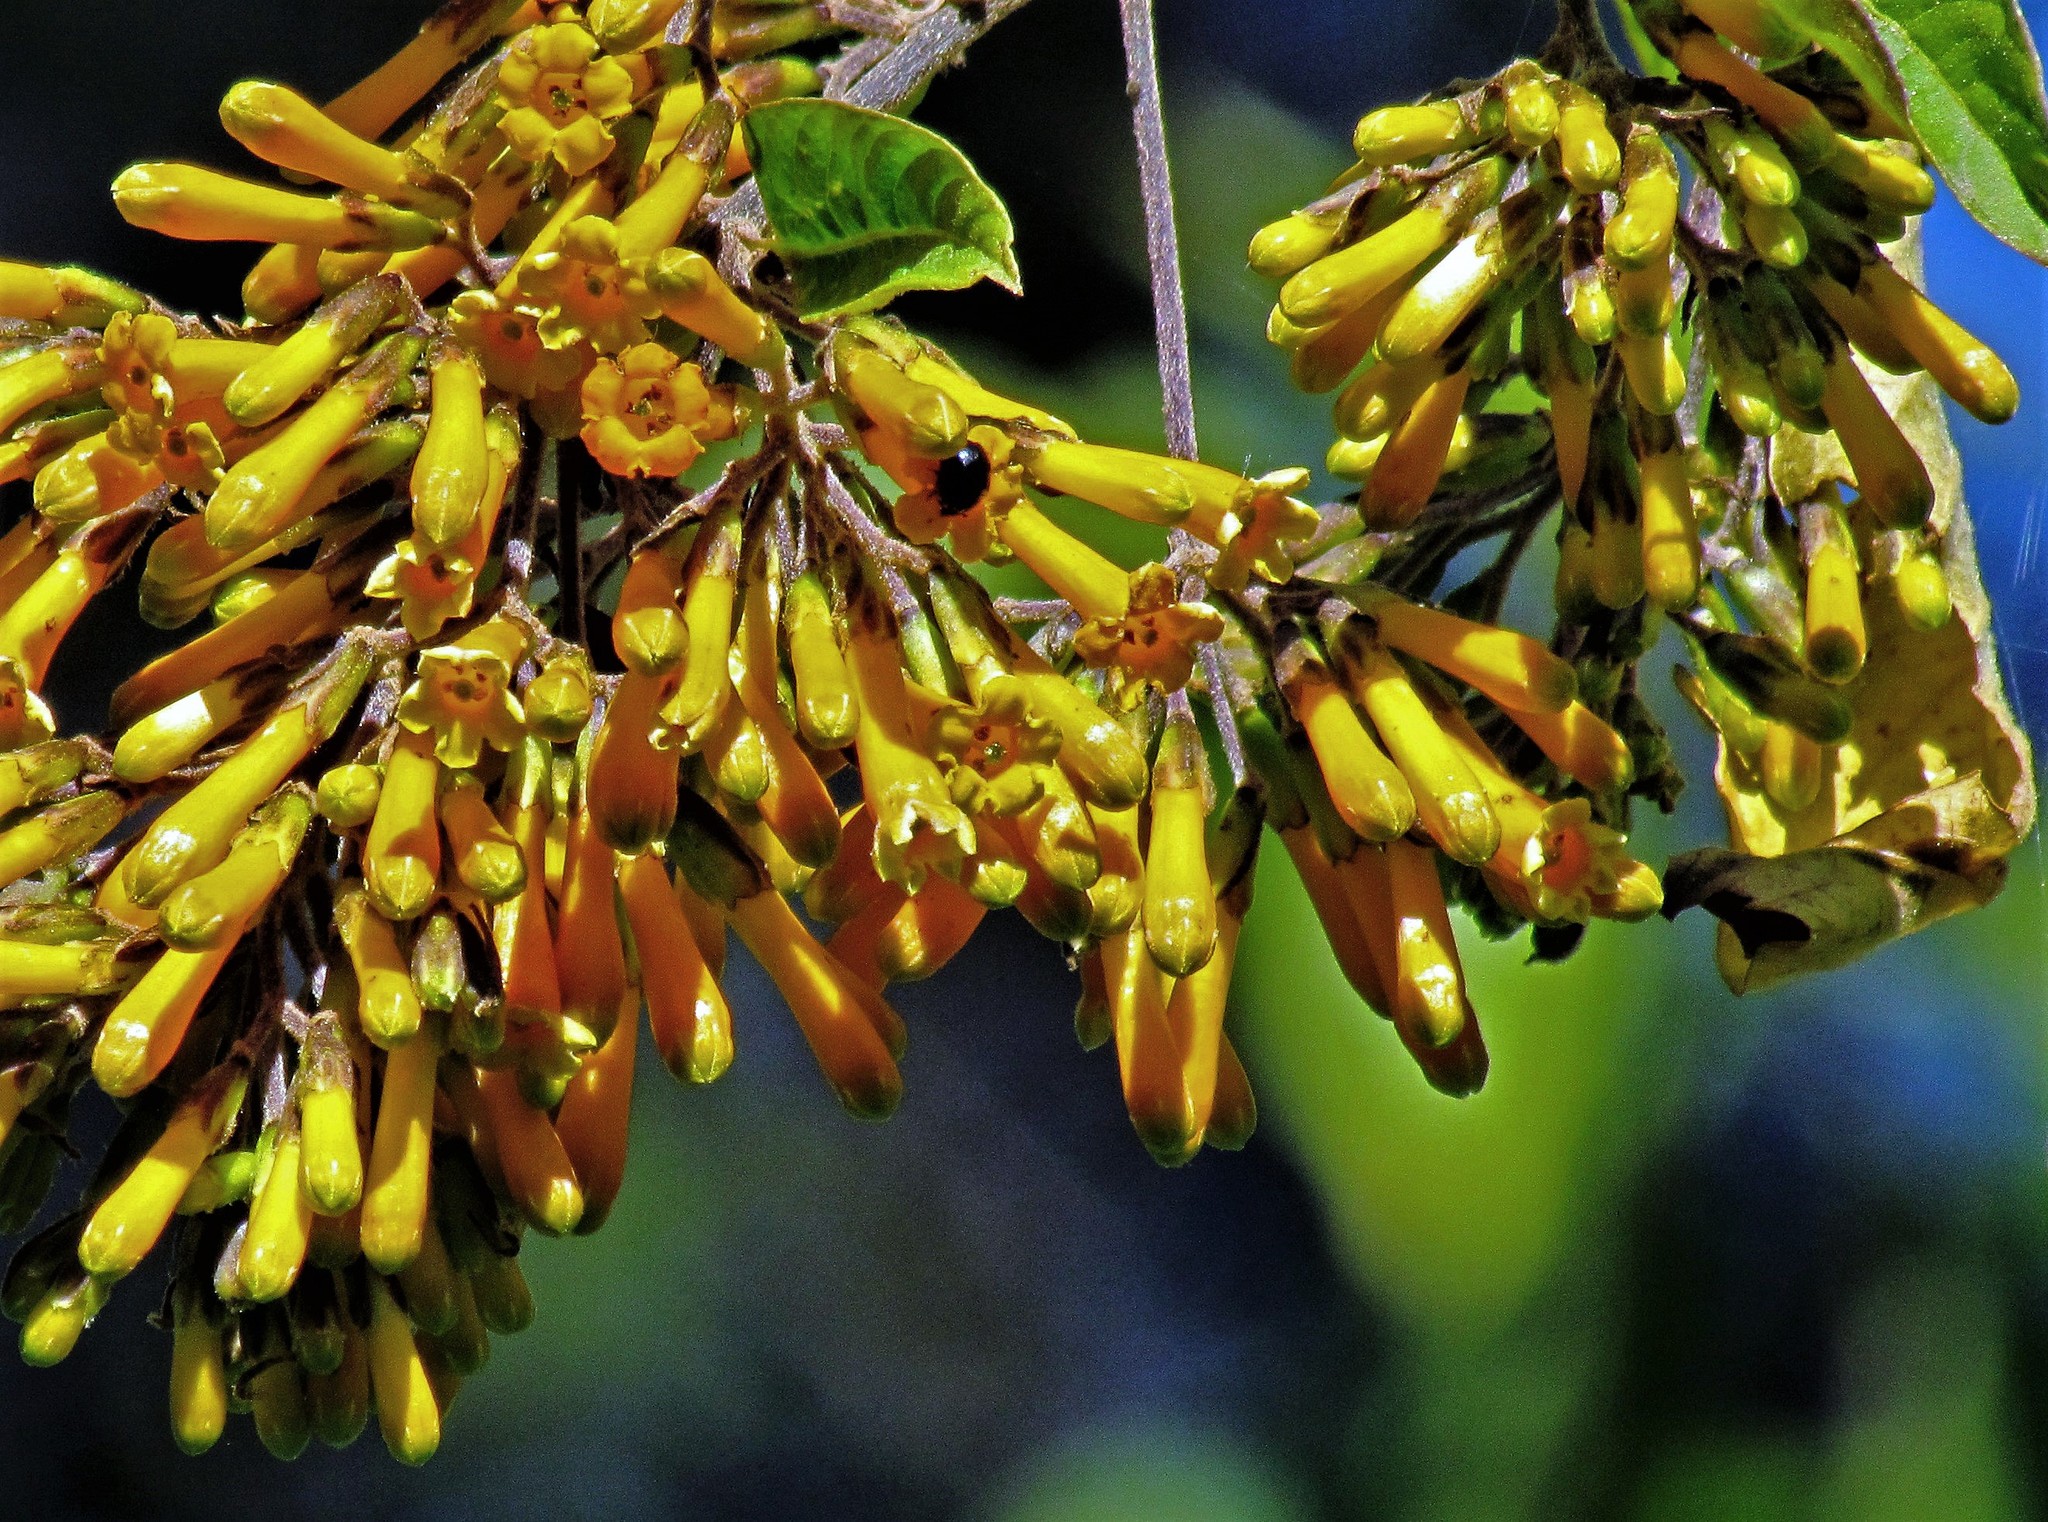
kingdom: Plantae
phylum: Tracheophyta
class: Magnoliopsida
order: Solanales
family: Solanaceae
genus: Cestrum
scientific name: Cestrum lorentzianum
